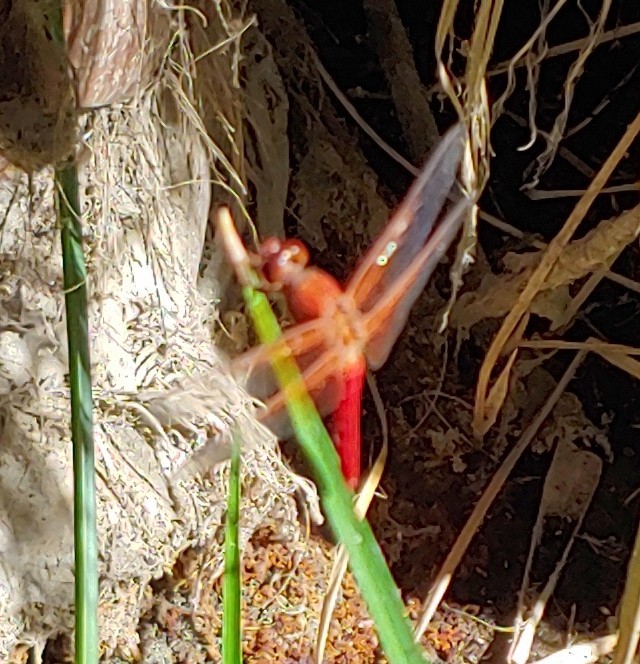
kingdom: Animalia
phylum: Arthropoda
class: Insecta
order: Odonata
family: Libellulidae
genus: Libellula
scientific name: Libellula croceipennis
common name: Neon skimmer
